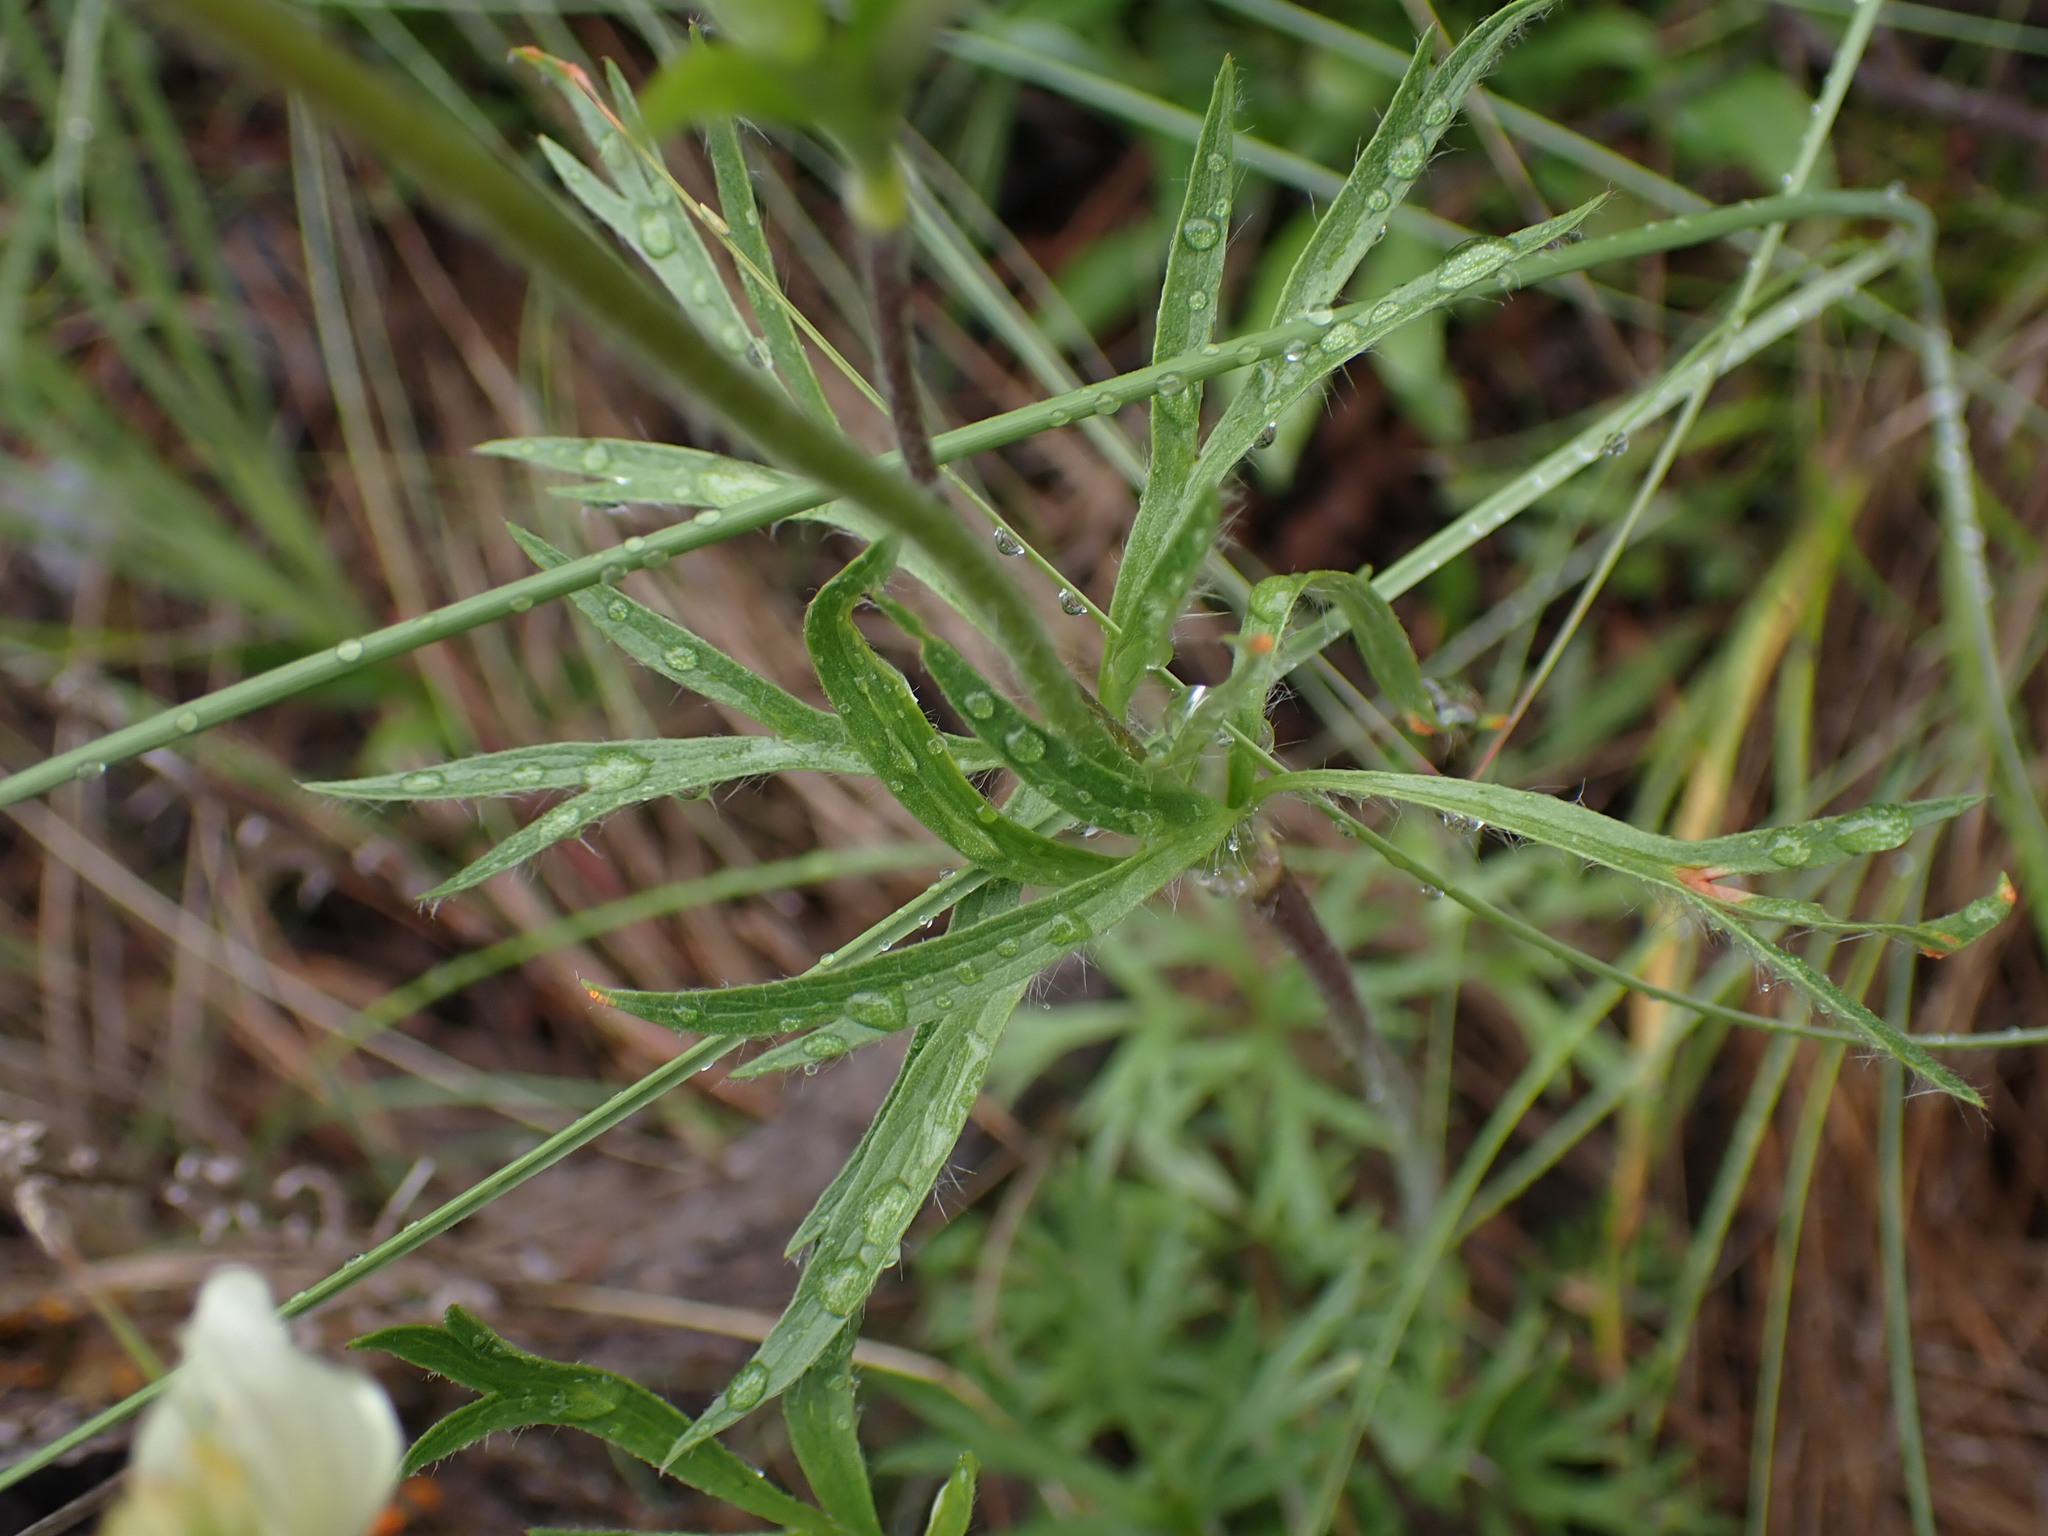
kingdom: Plantae
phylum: Tracheophyta
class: Magnoliopsida
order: Ranunculales
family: Ranunculaceae
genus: Anemone
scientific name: Anemone multifida
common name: Bird's-foot anemone
